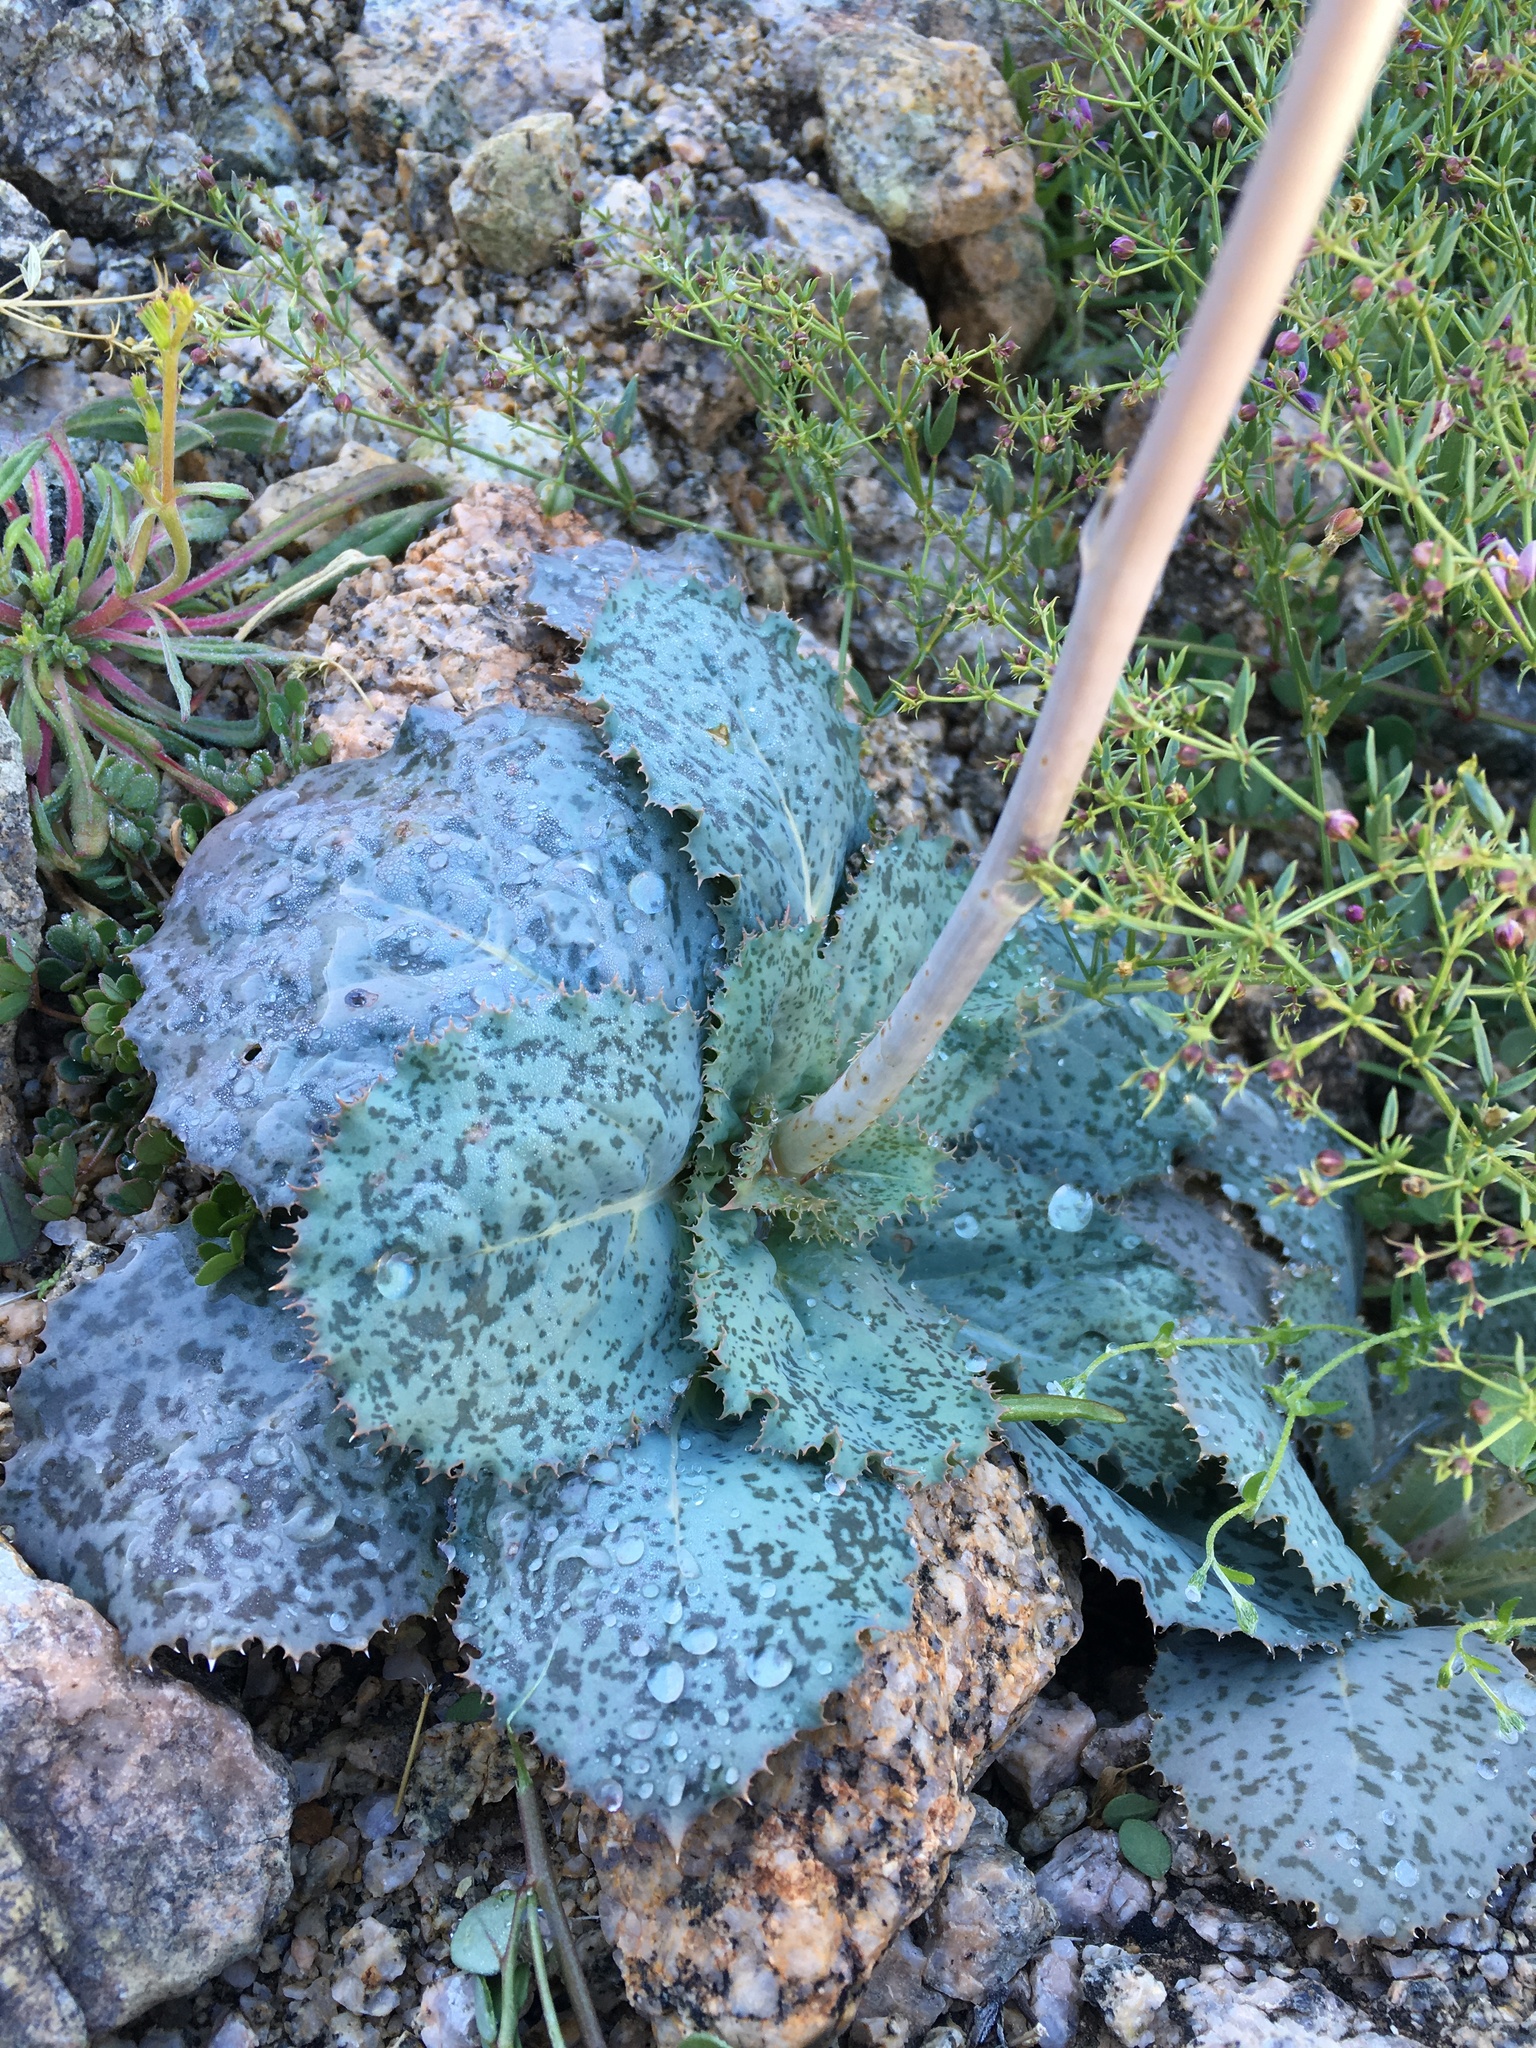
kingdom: Plantae
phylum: Tracheophyta
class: Magnoliopsida
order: Asterales
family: Asteraceae
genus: Atrichoseris
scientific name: Atrichoseris platyphylla
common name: Tobaccoweed
